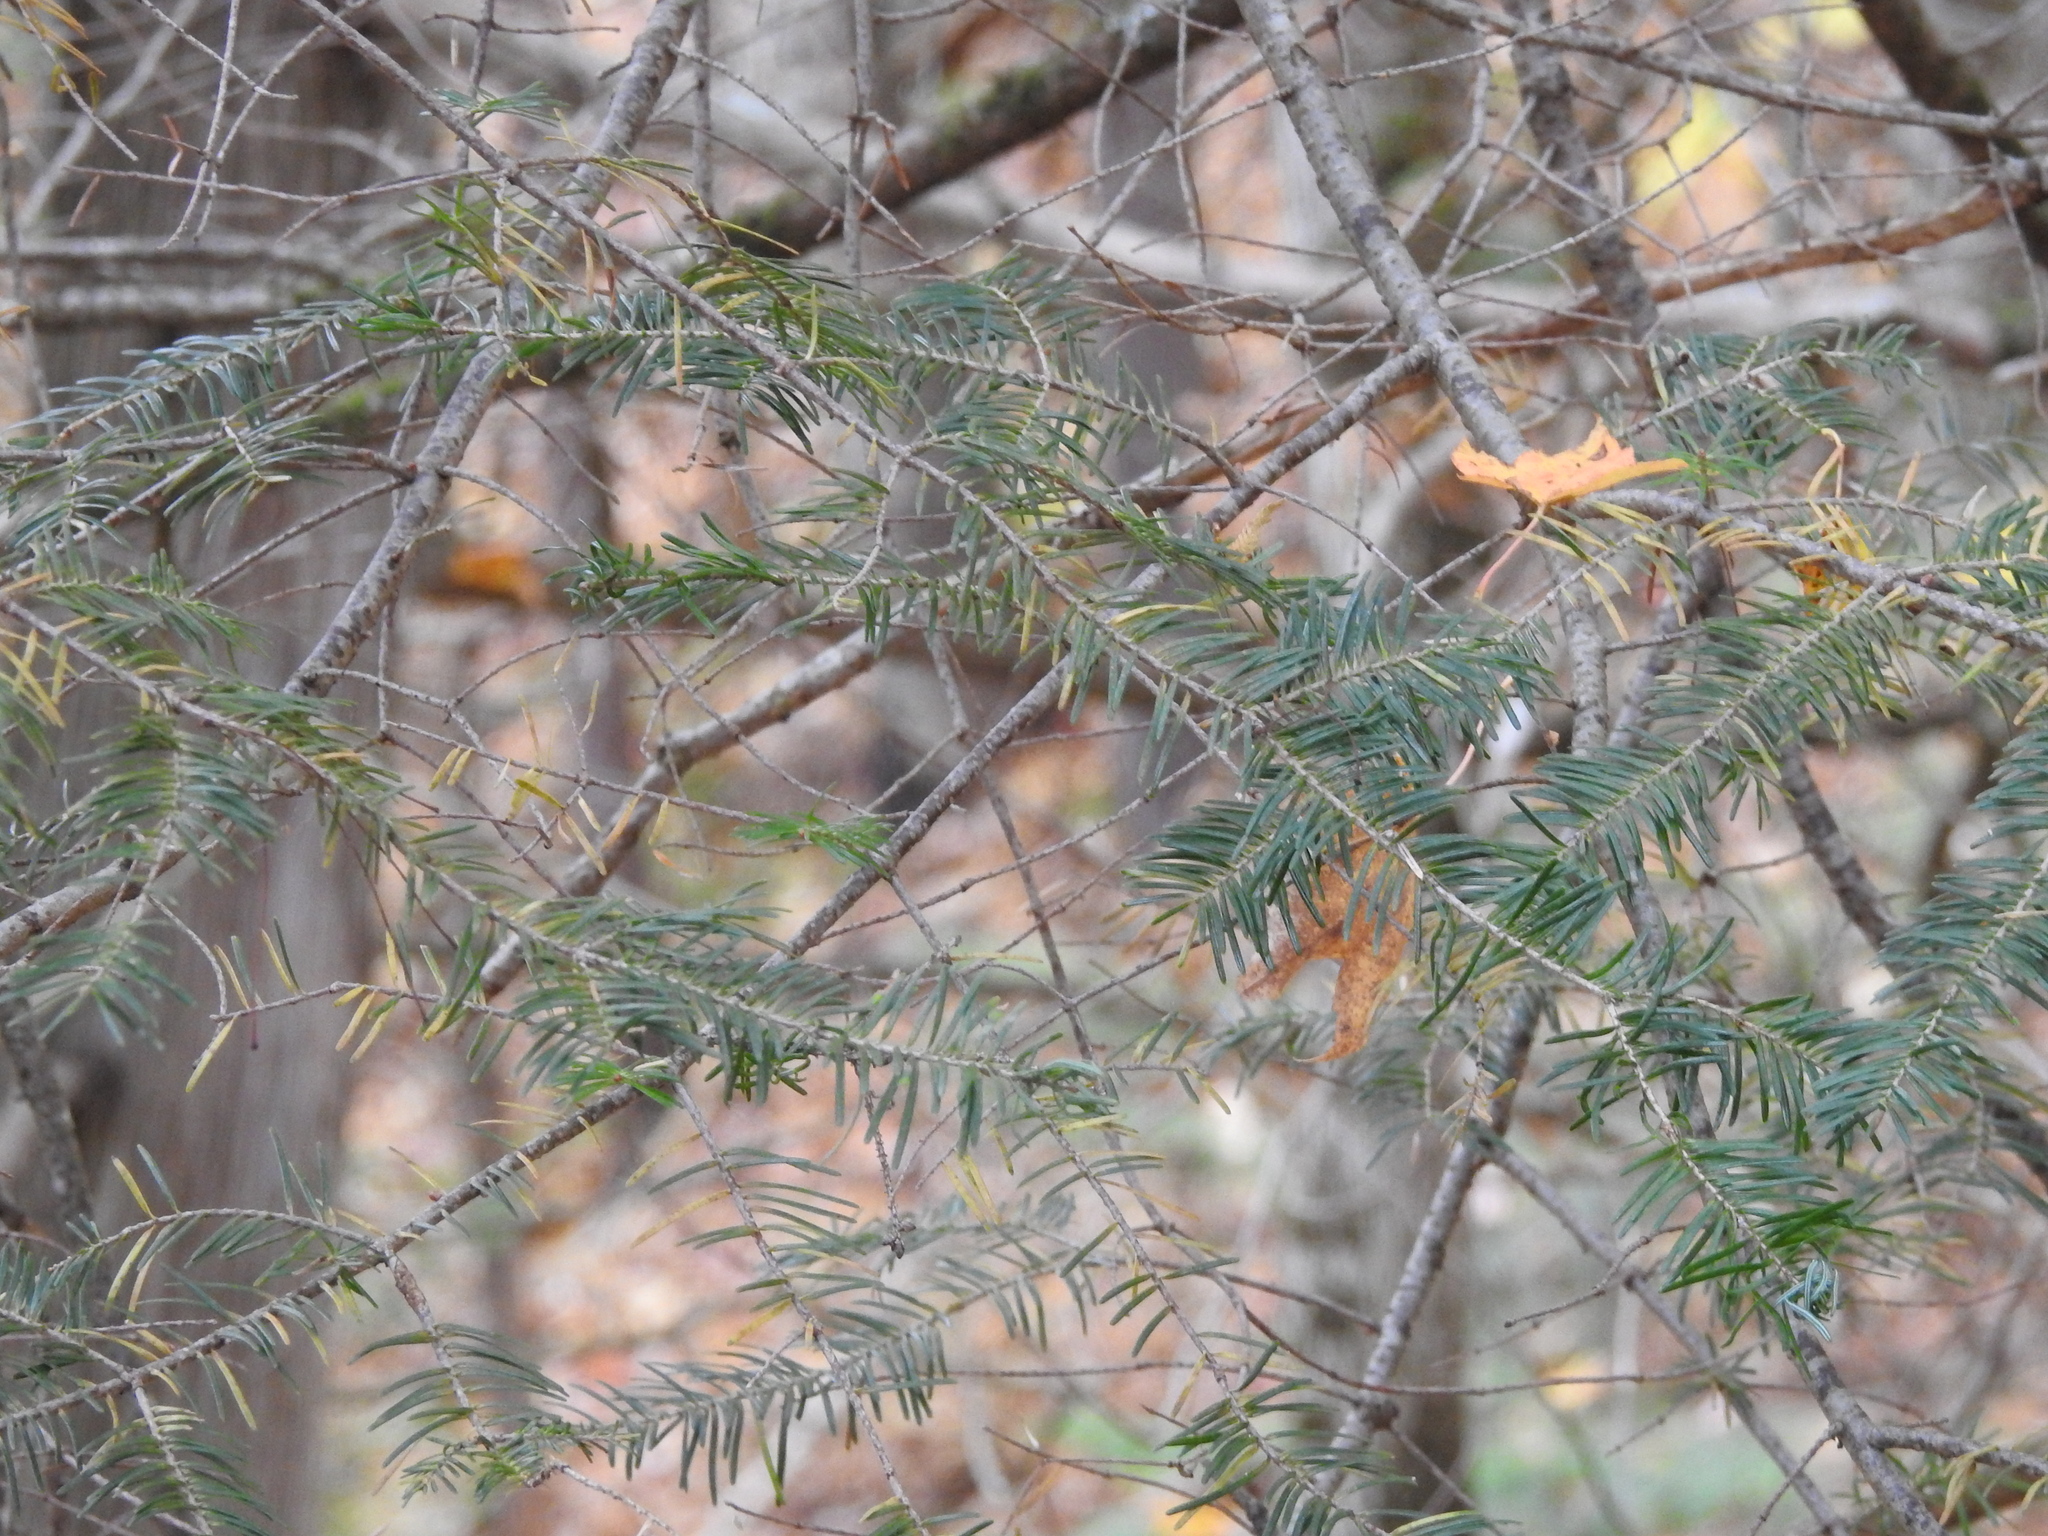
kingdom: Plantae
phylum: Tracheophyta
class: Pinopsida
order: Pinales
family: Pinaceae
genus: Abies
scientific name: Abies balsamea
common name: Balsam fir
